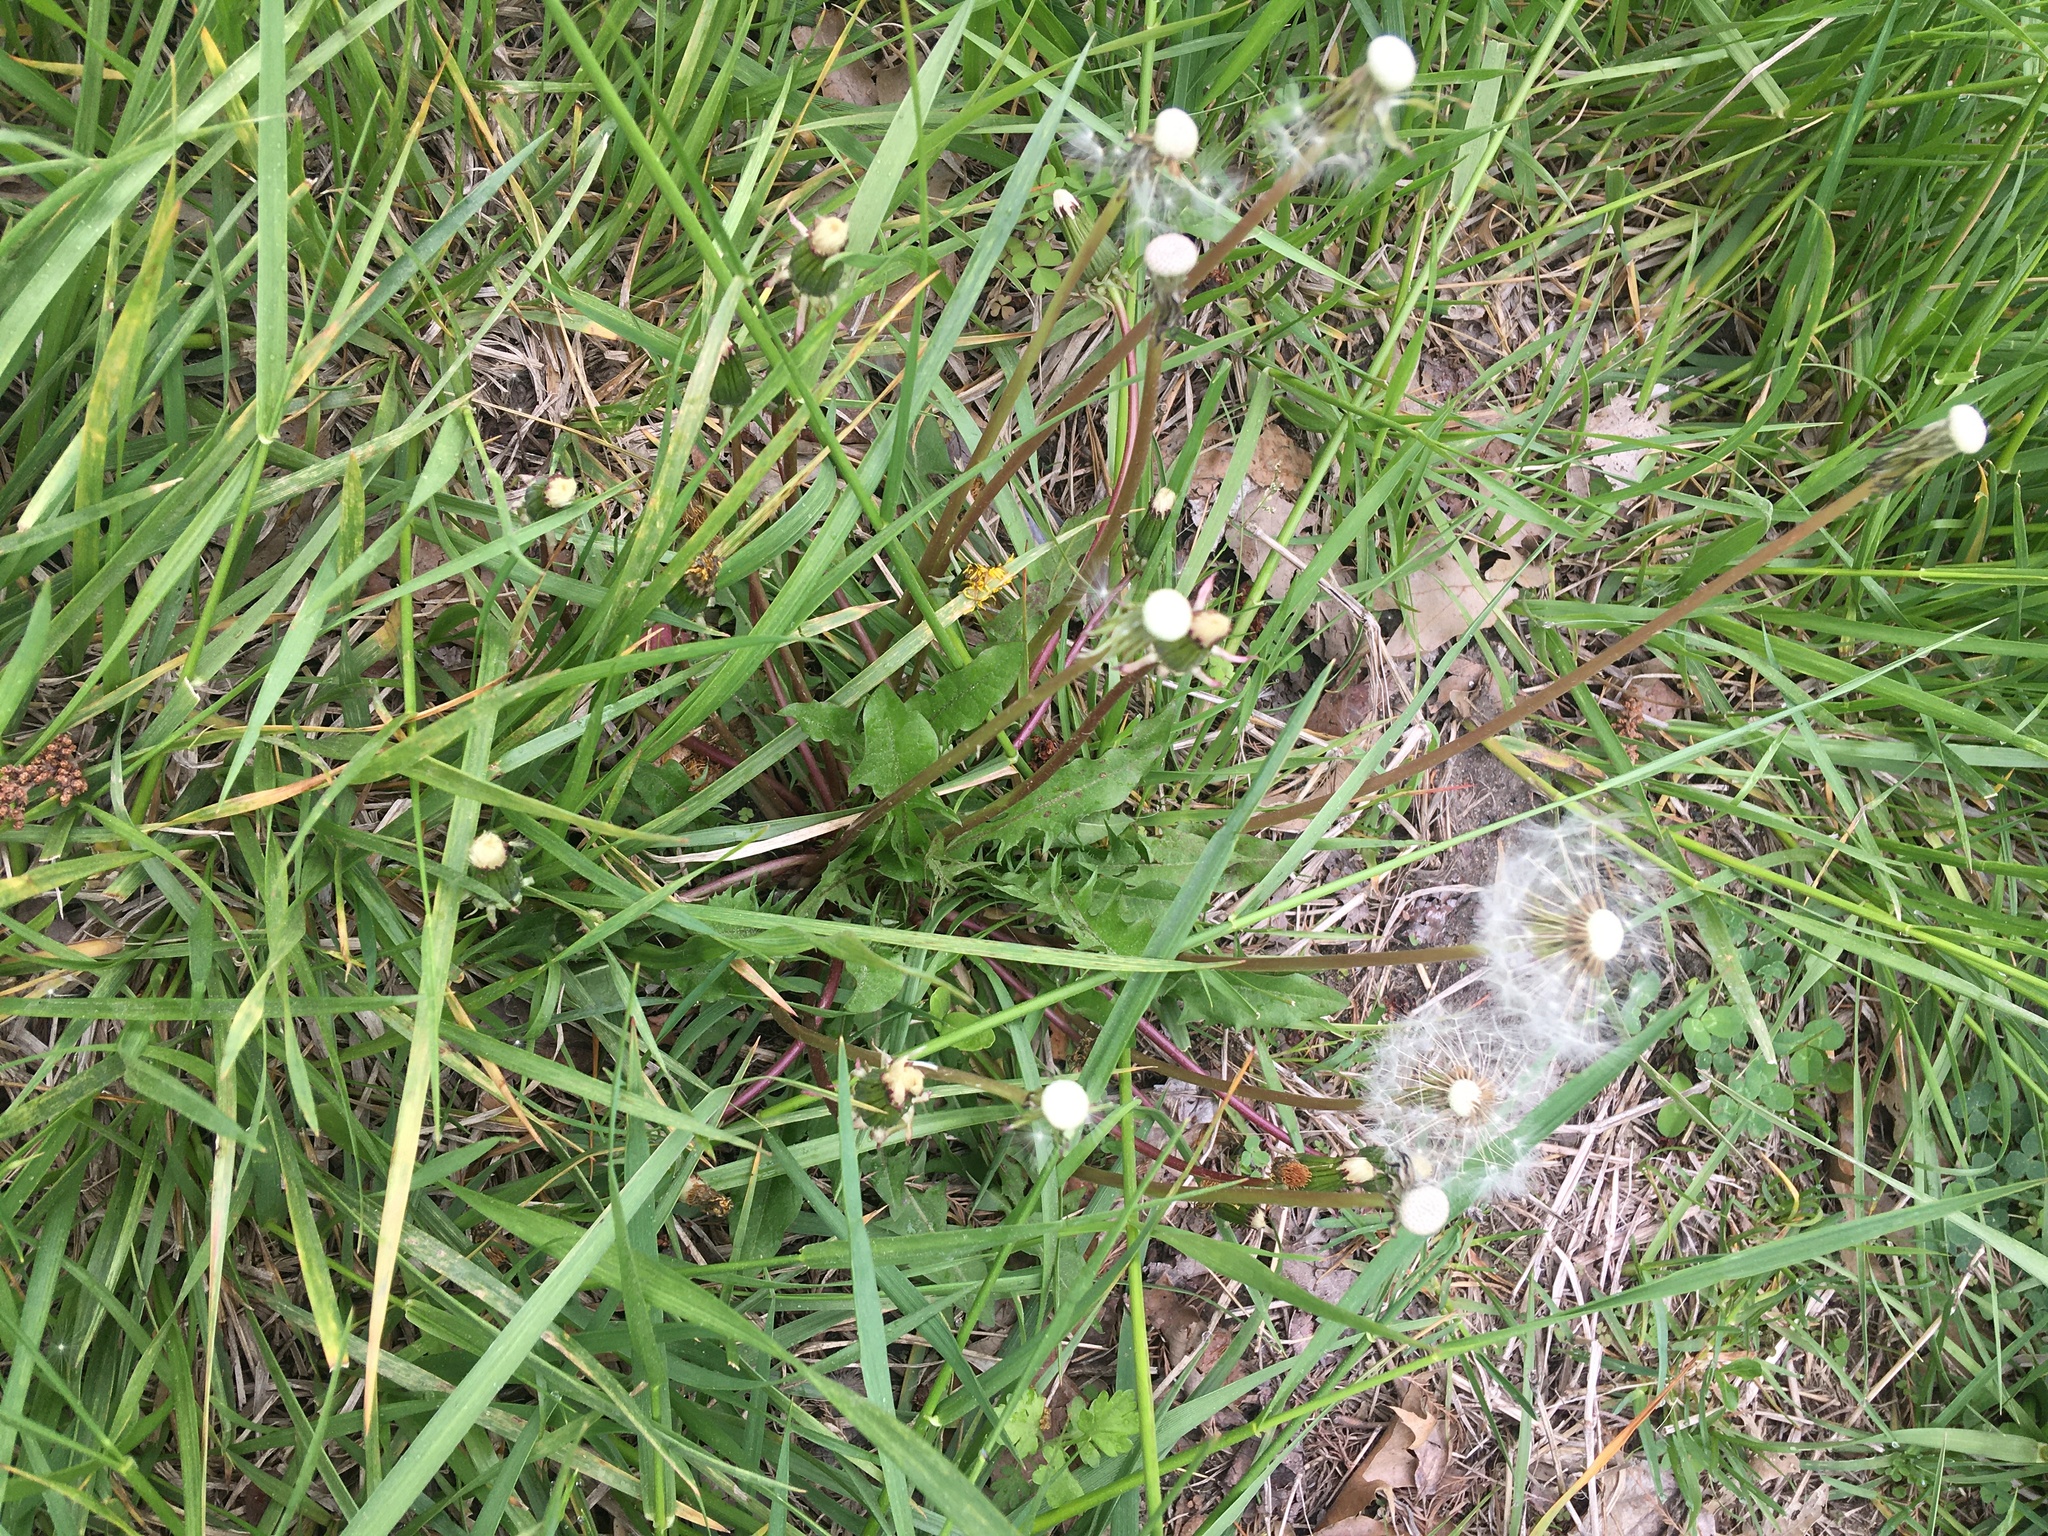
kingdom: Plantae
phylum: Tracheophyta
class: Magnoliopsida
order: Asterales
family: Asteraceae
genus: Taraxacum
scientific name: Taraxacum officinale
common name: Common dandelion
